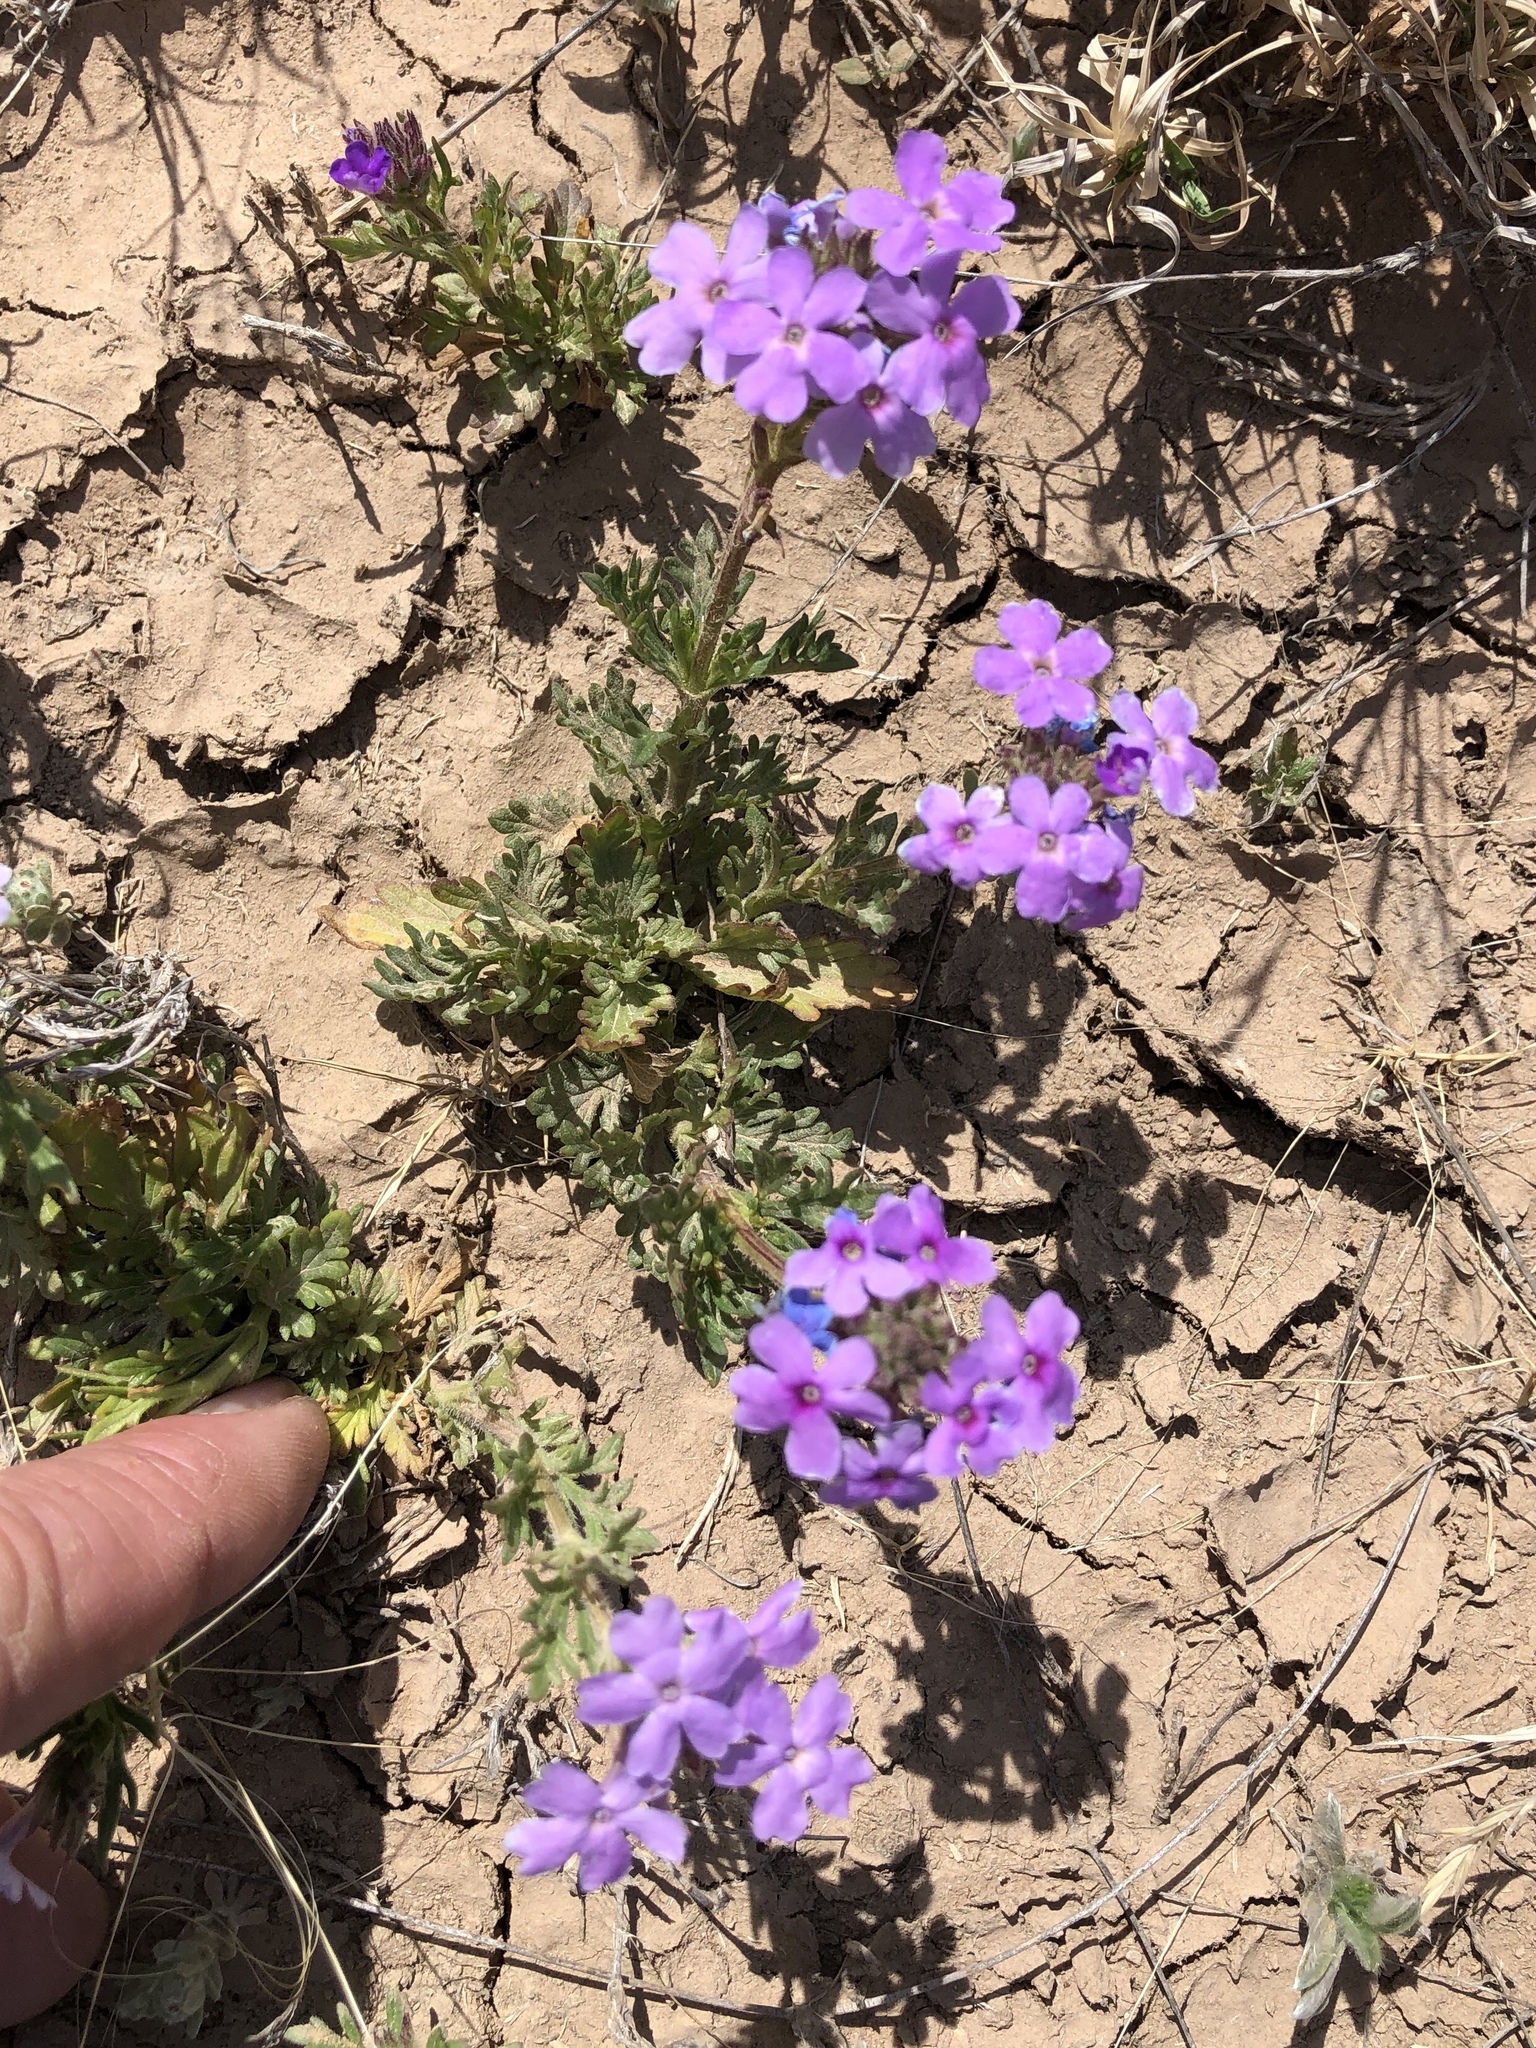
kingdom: Plantae
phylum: Tracheophyta
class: Magnoliopsida
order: Lamiales
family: Verbenaceae
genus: Verbena
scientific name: Verbena bipinnatifida
